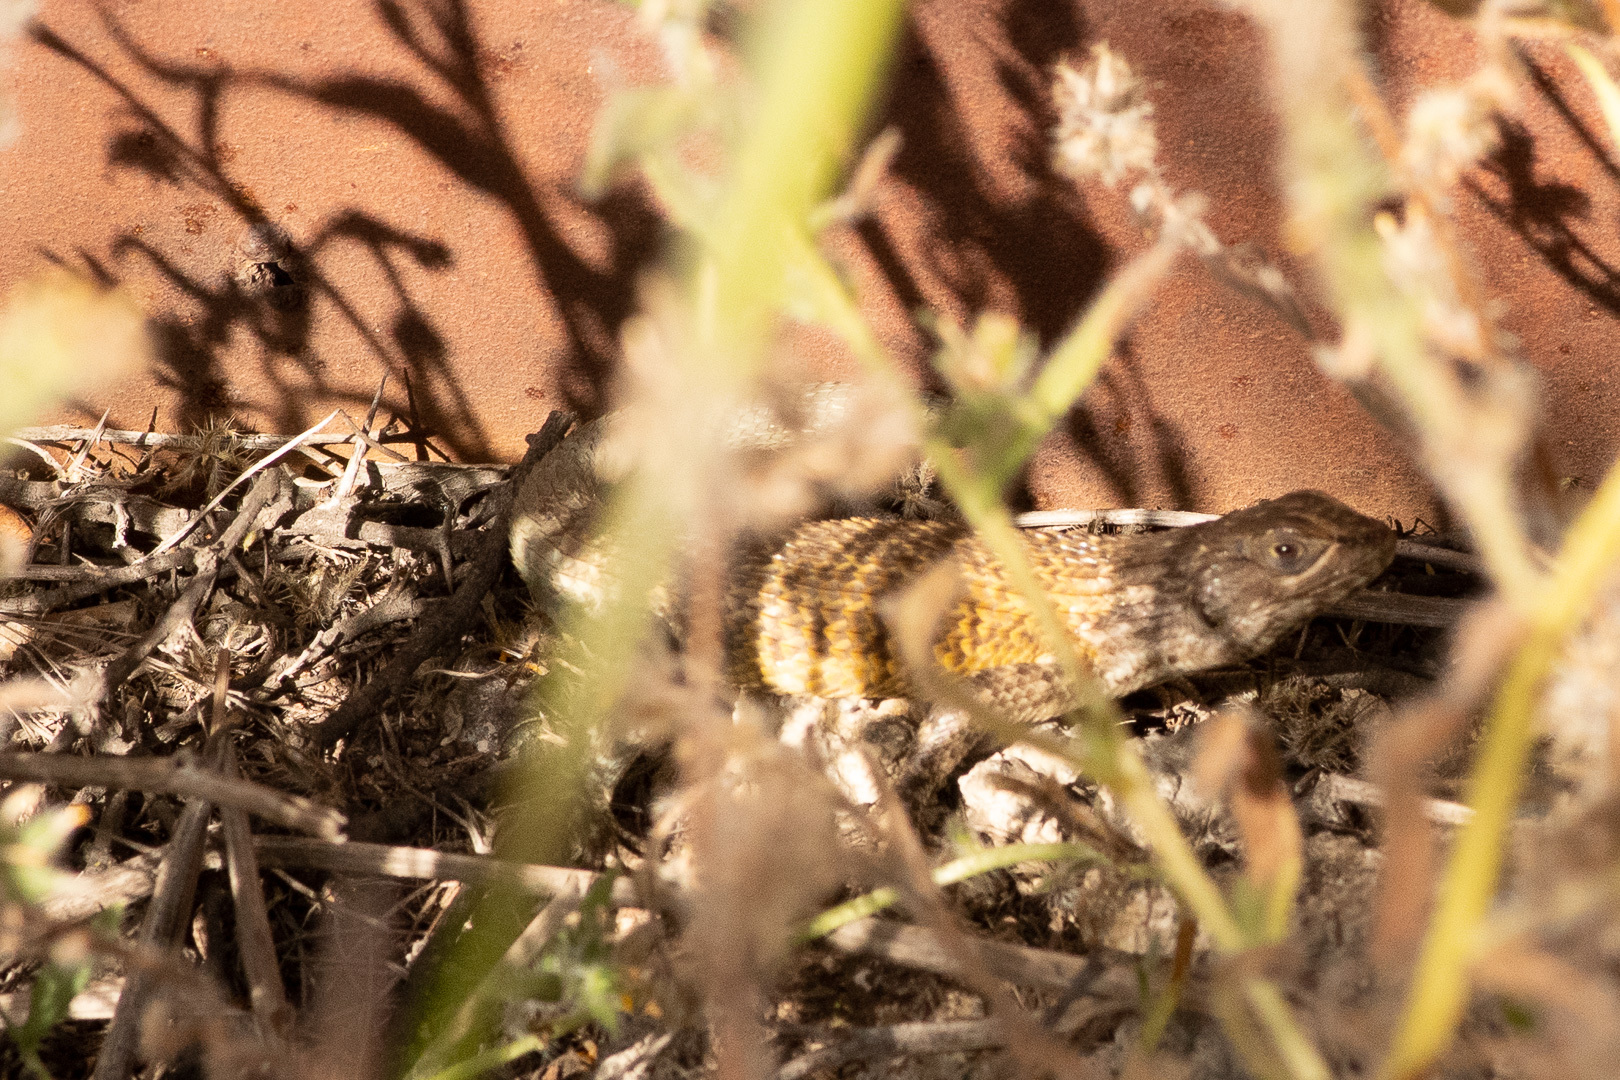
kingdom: Animalia
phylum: Chordata
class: Squamata
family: Liolaemidae
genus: Liolaemus
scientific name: Liolaemus nitidus
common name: Shining tree iguana
